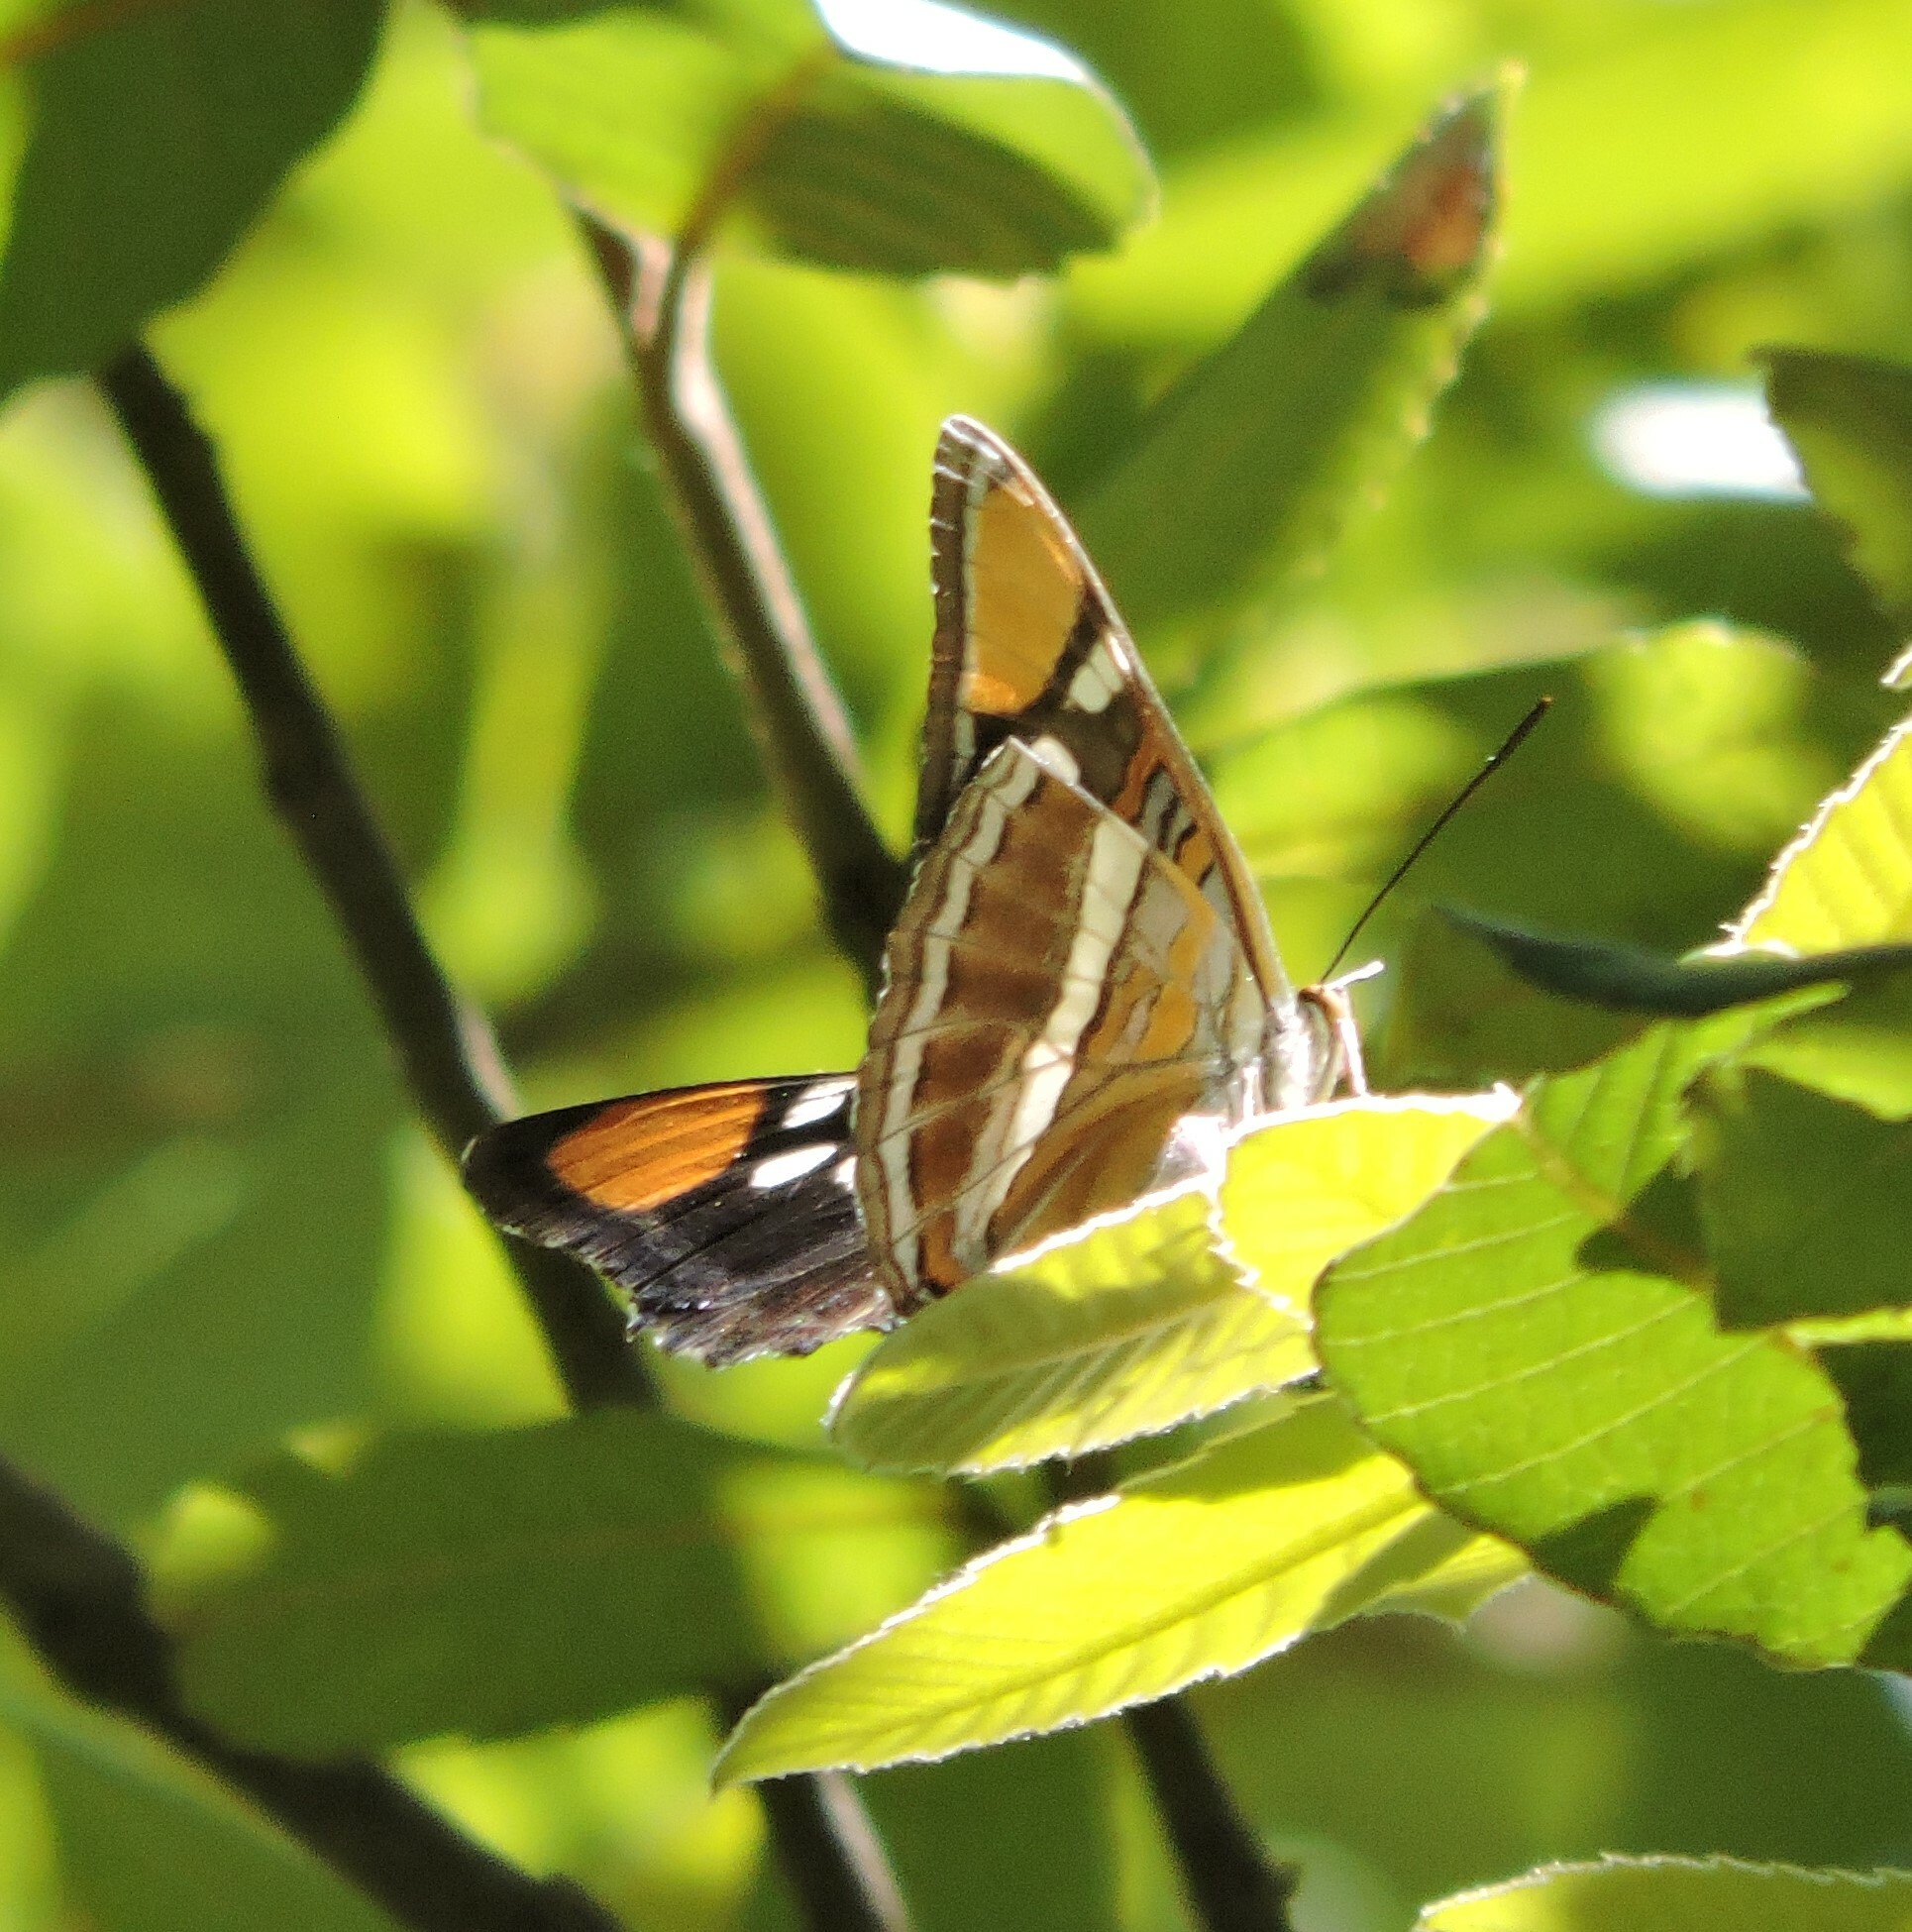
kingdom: Animalia
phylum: Arthropoda
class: Insecta
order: Lepidoptera
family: Nymphalidae
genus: Limenitis
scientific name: Limenitis bredowii
